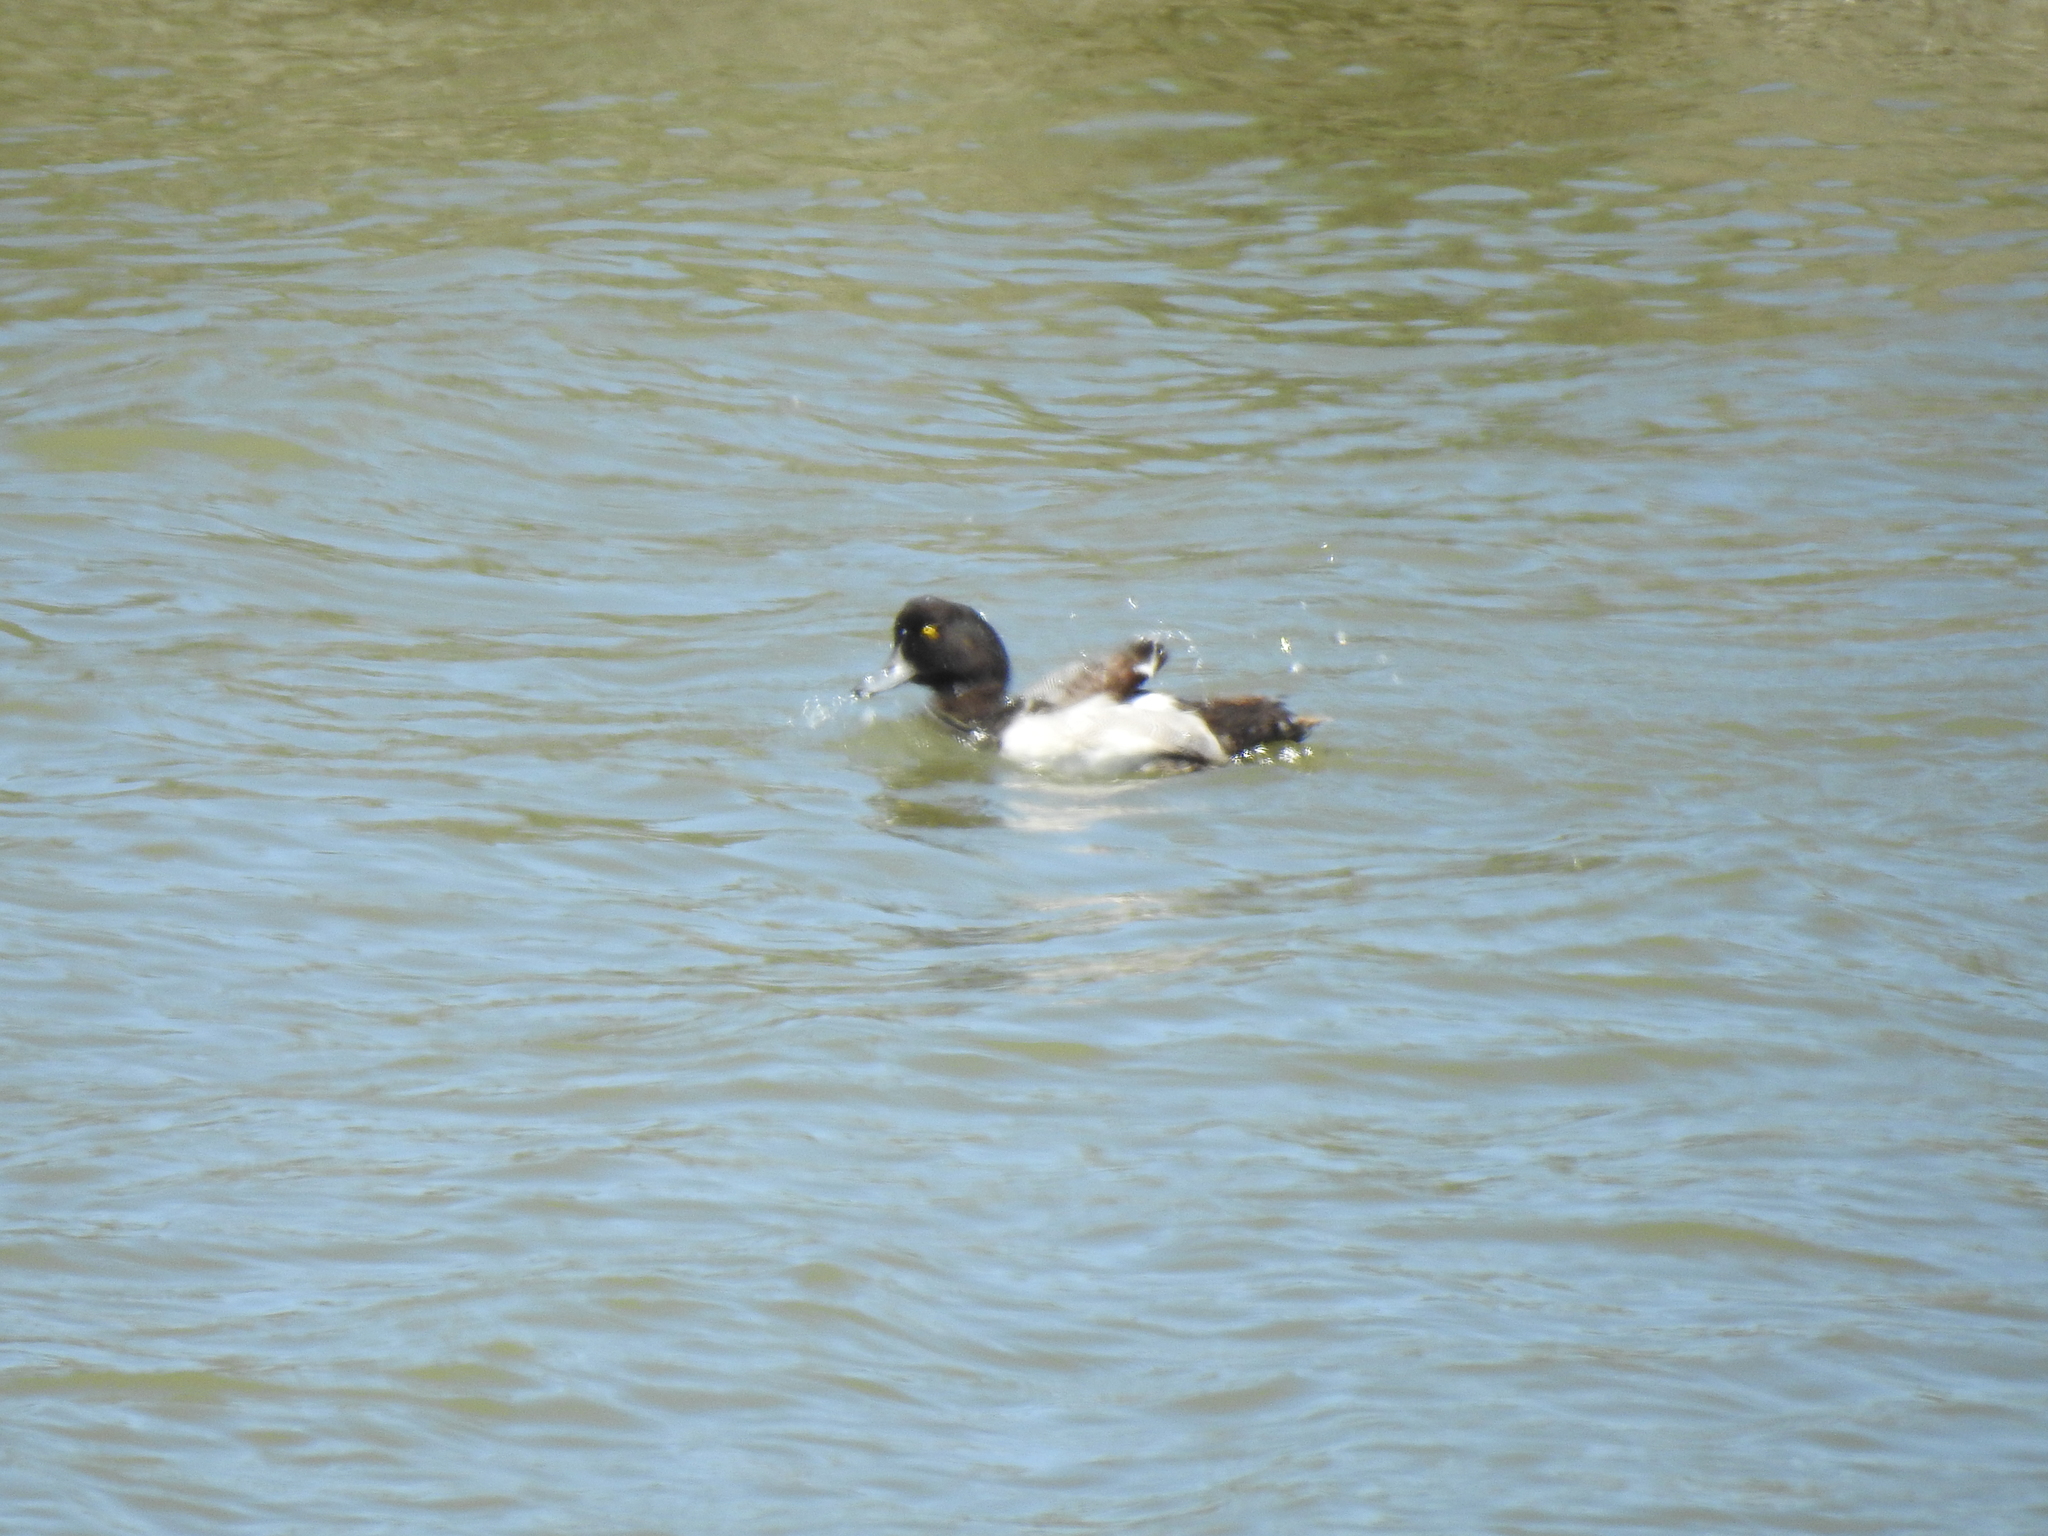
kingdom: Animalia
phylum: Chordata
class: Aves
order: Anseriformes
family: Anatidae
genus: Aythya
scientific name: Aythya marila
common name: Greater scaup
